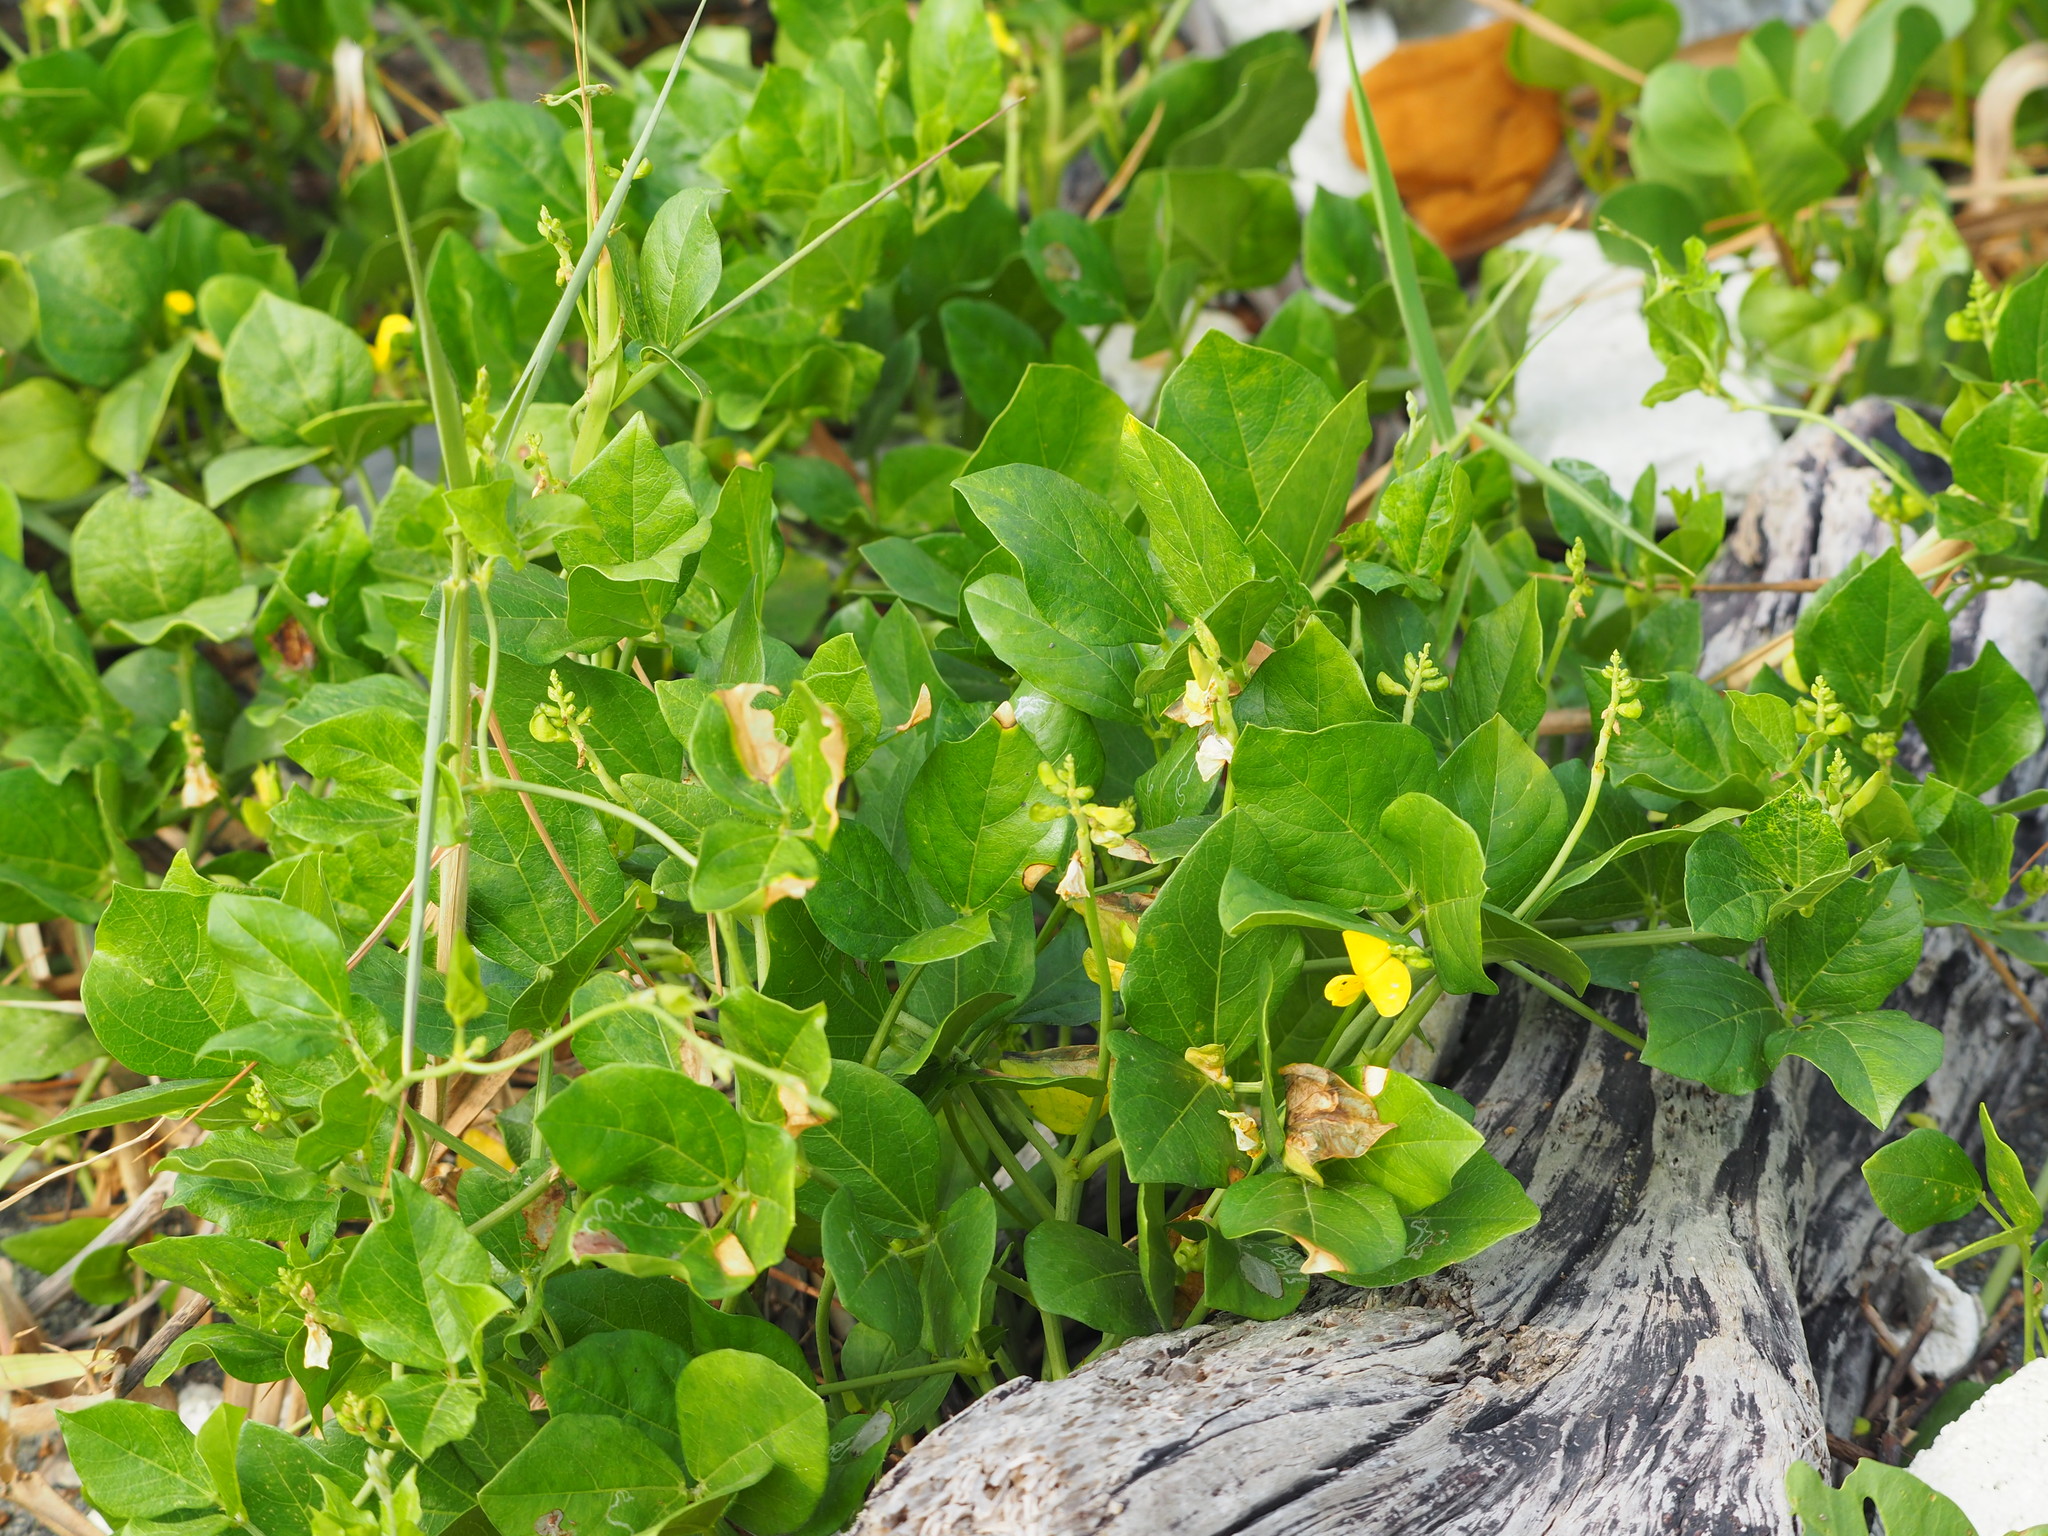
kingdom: Plantae
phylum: Tracheophyta
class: Magnoliopsida
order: Fabales
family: Fabaceae
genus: Vigna
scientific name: Vigna marina
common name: Dune-bean
